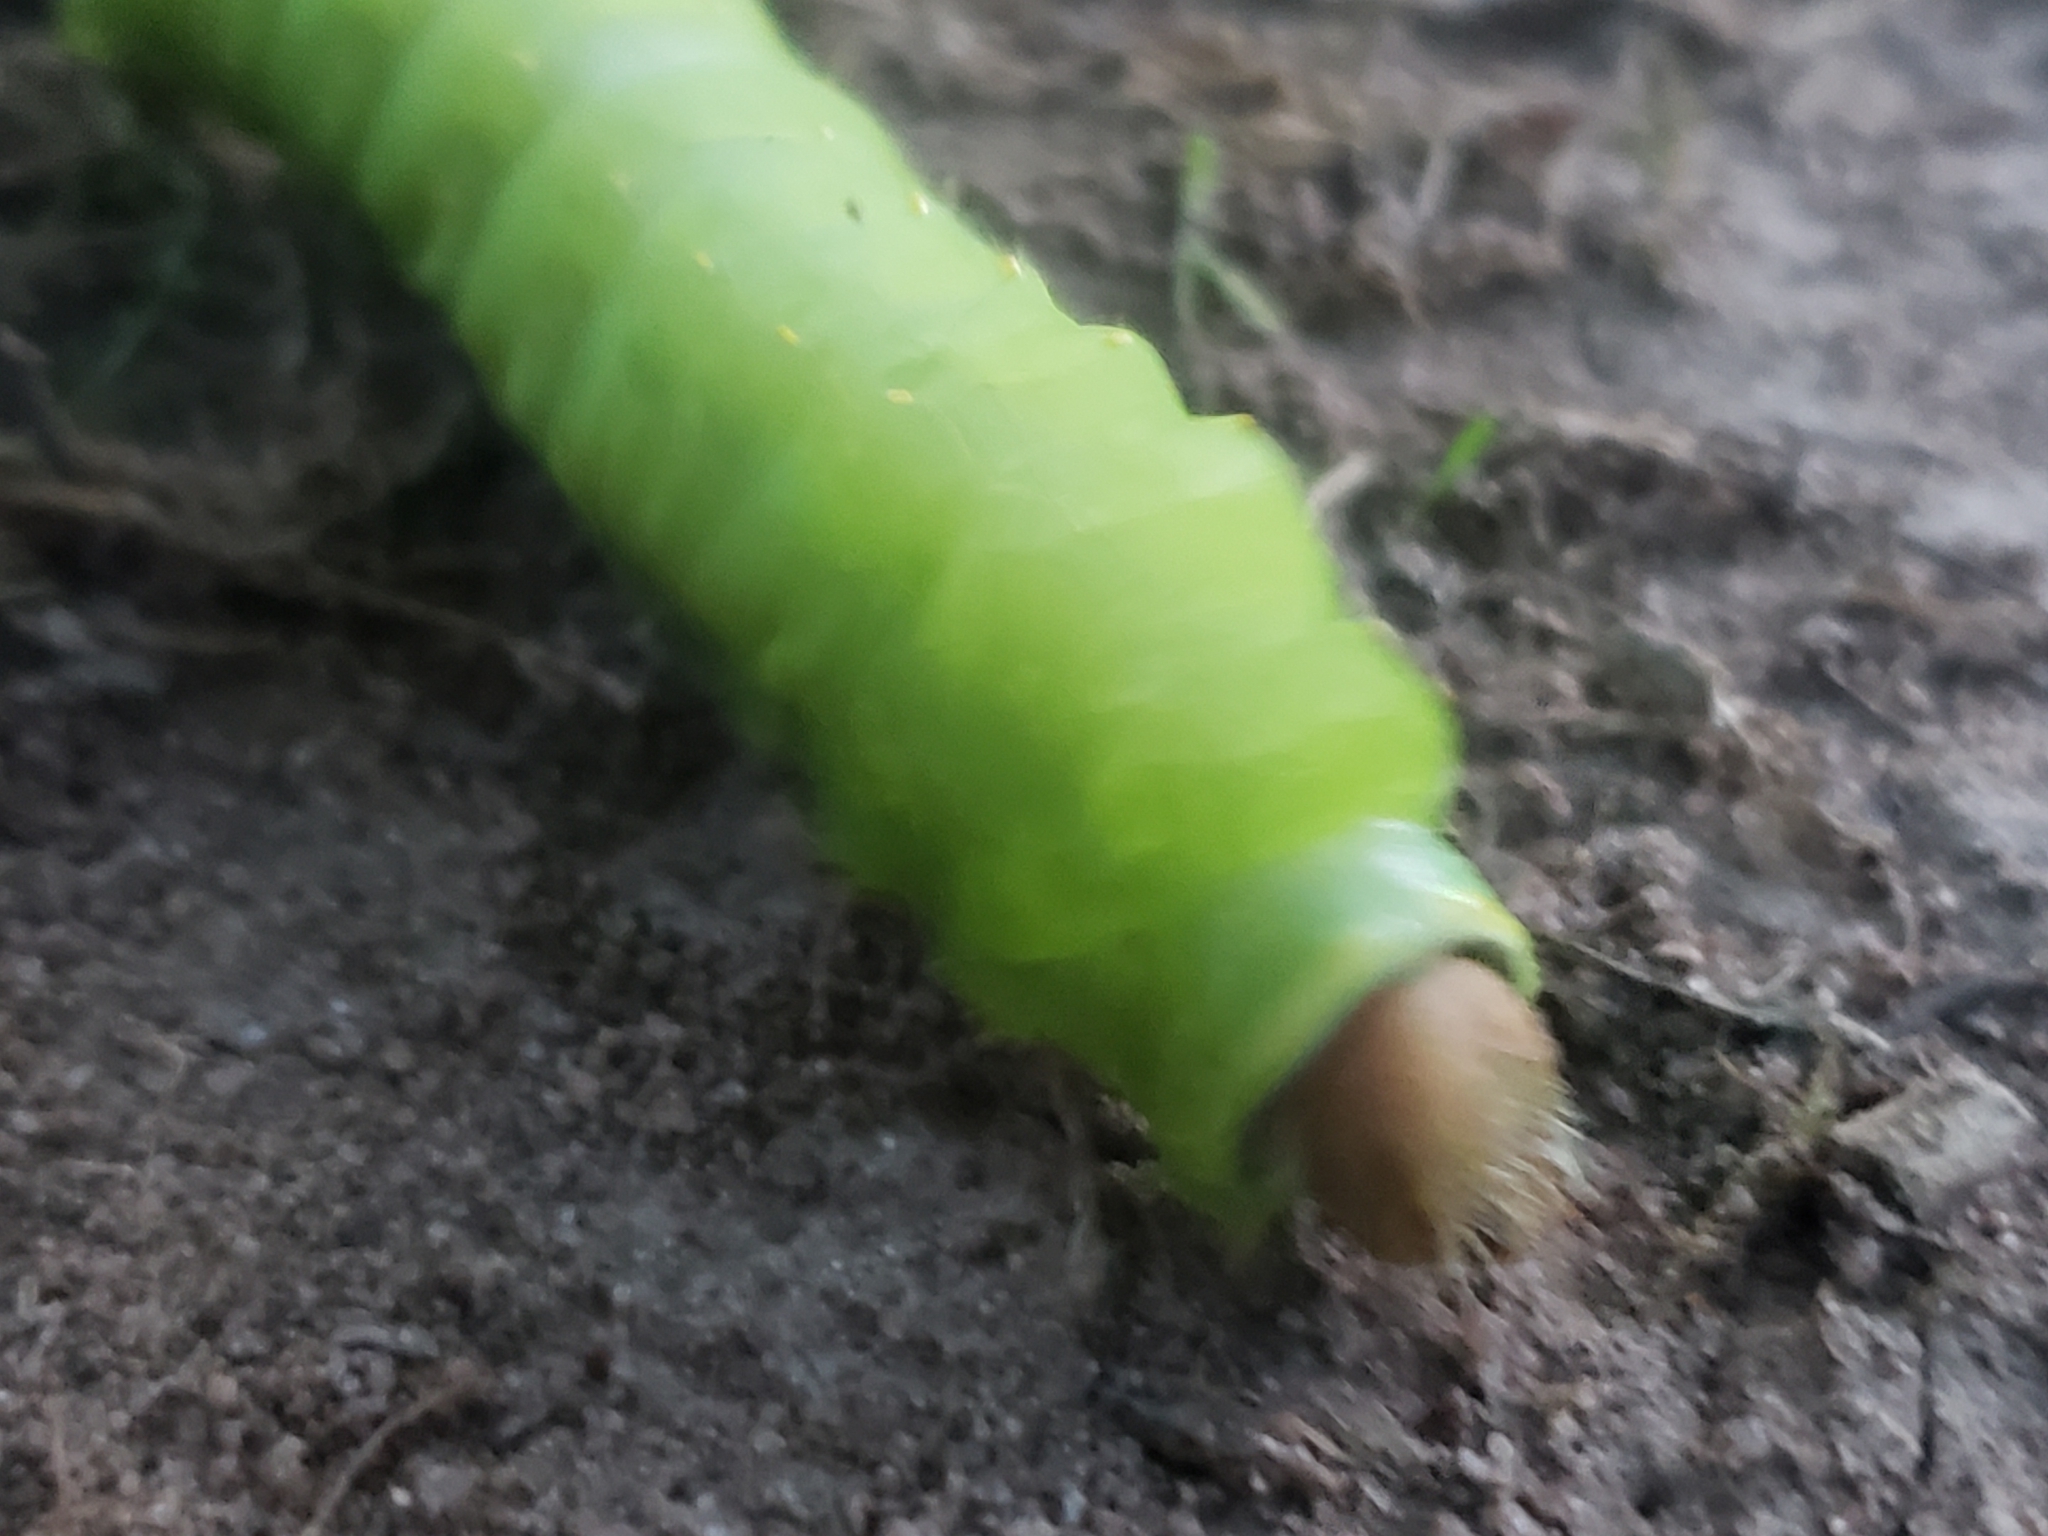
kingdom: Animalia
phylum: Arthropoda
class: Insecta
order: Lepidoptera
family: Saturniidae
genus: Antheraea
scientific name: Antheraea polyphemus
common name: Polyphemus moth
